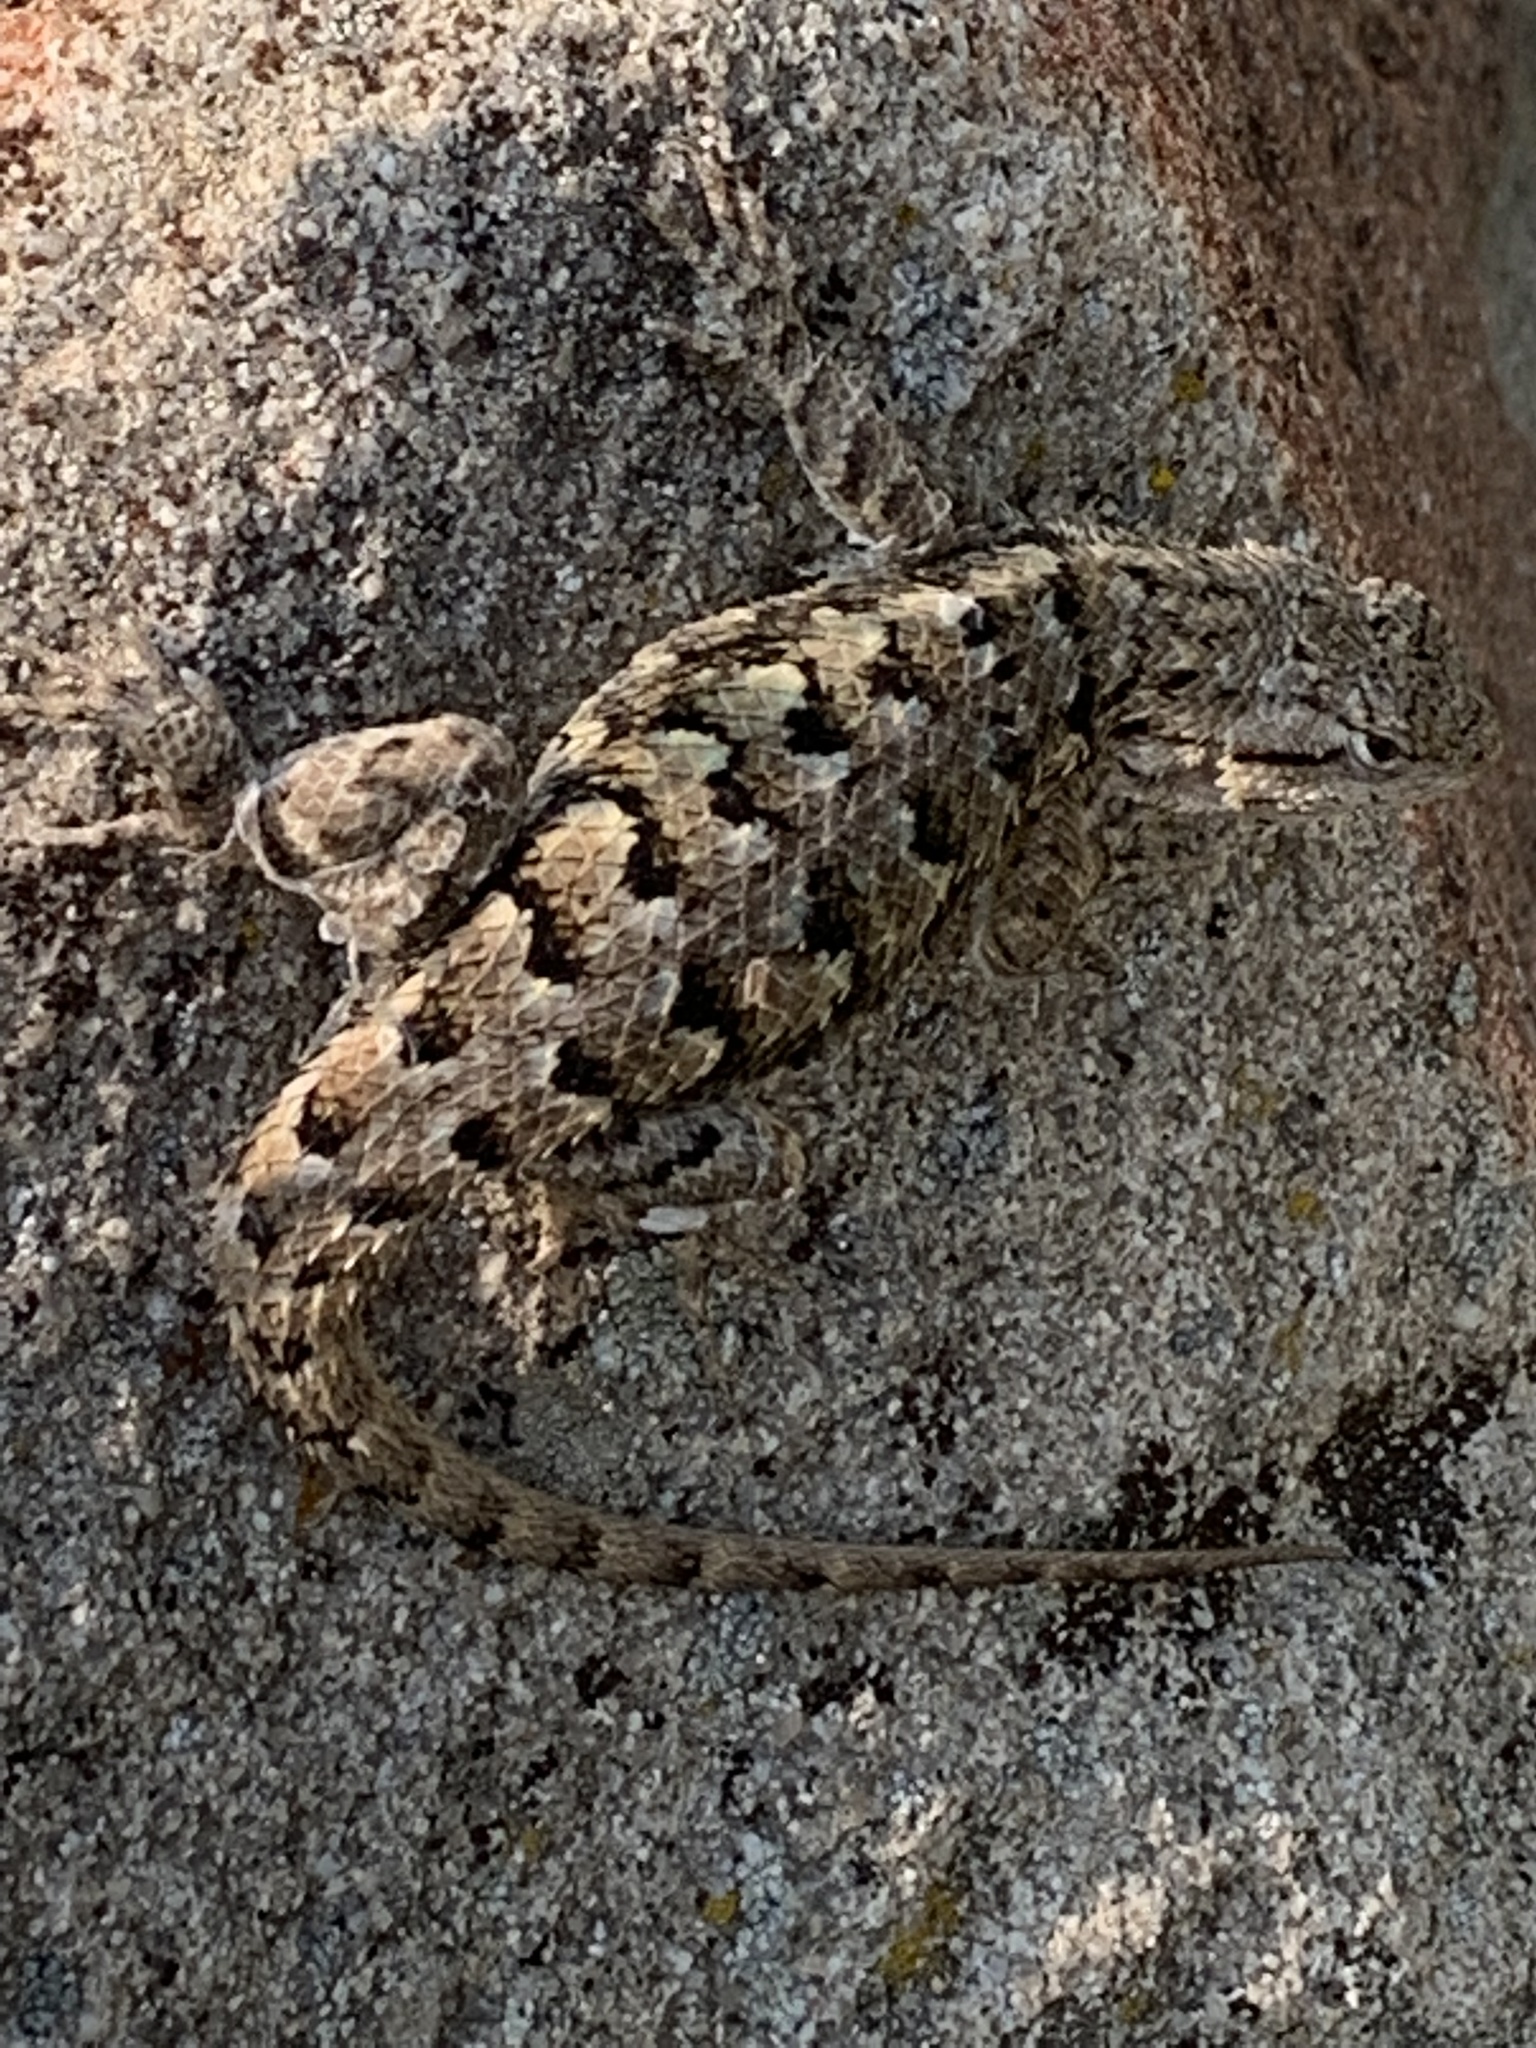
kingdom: Animalia
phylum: Chordata
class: Squamata
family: Phrynosomatidae
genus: Sceloporus
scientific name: Sceloporus occidentalis
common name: Western fence lizard
